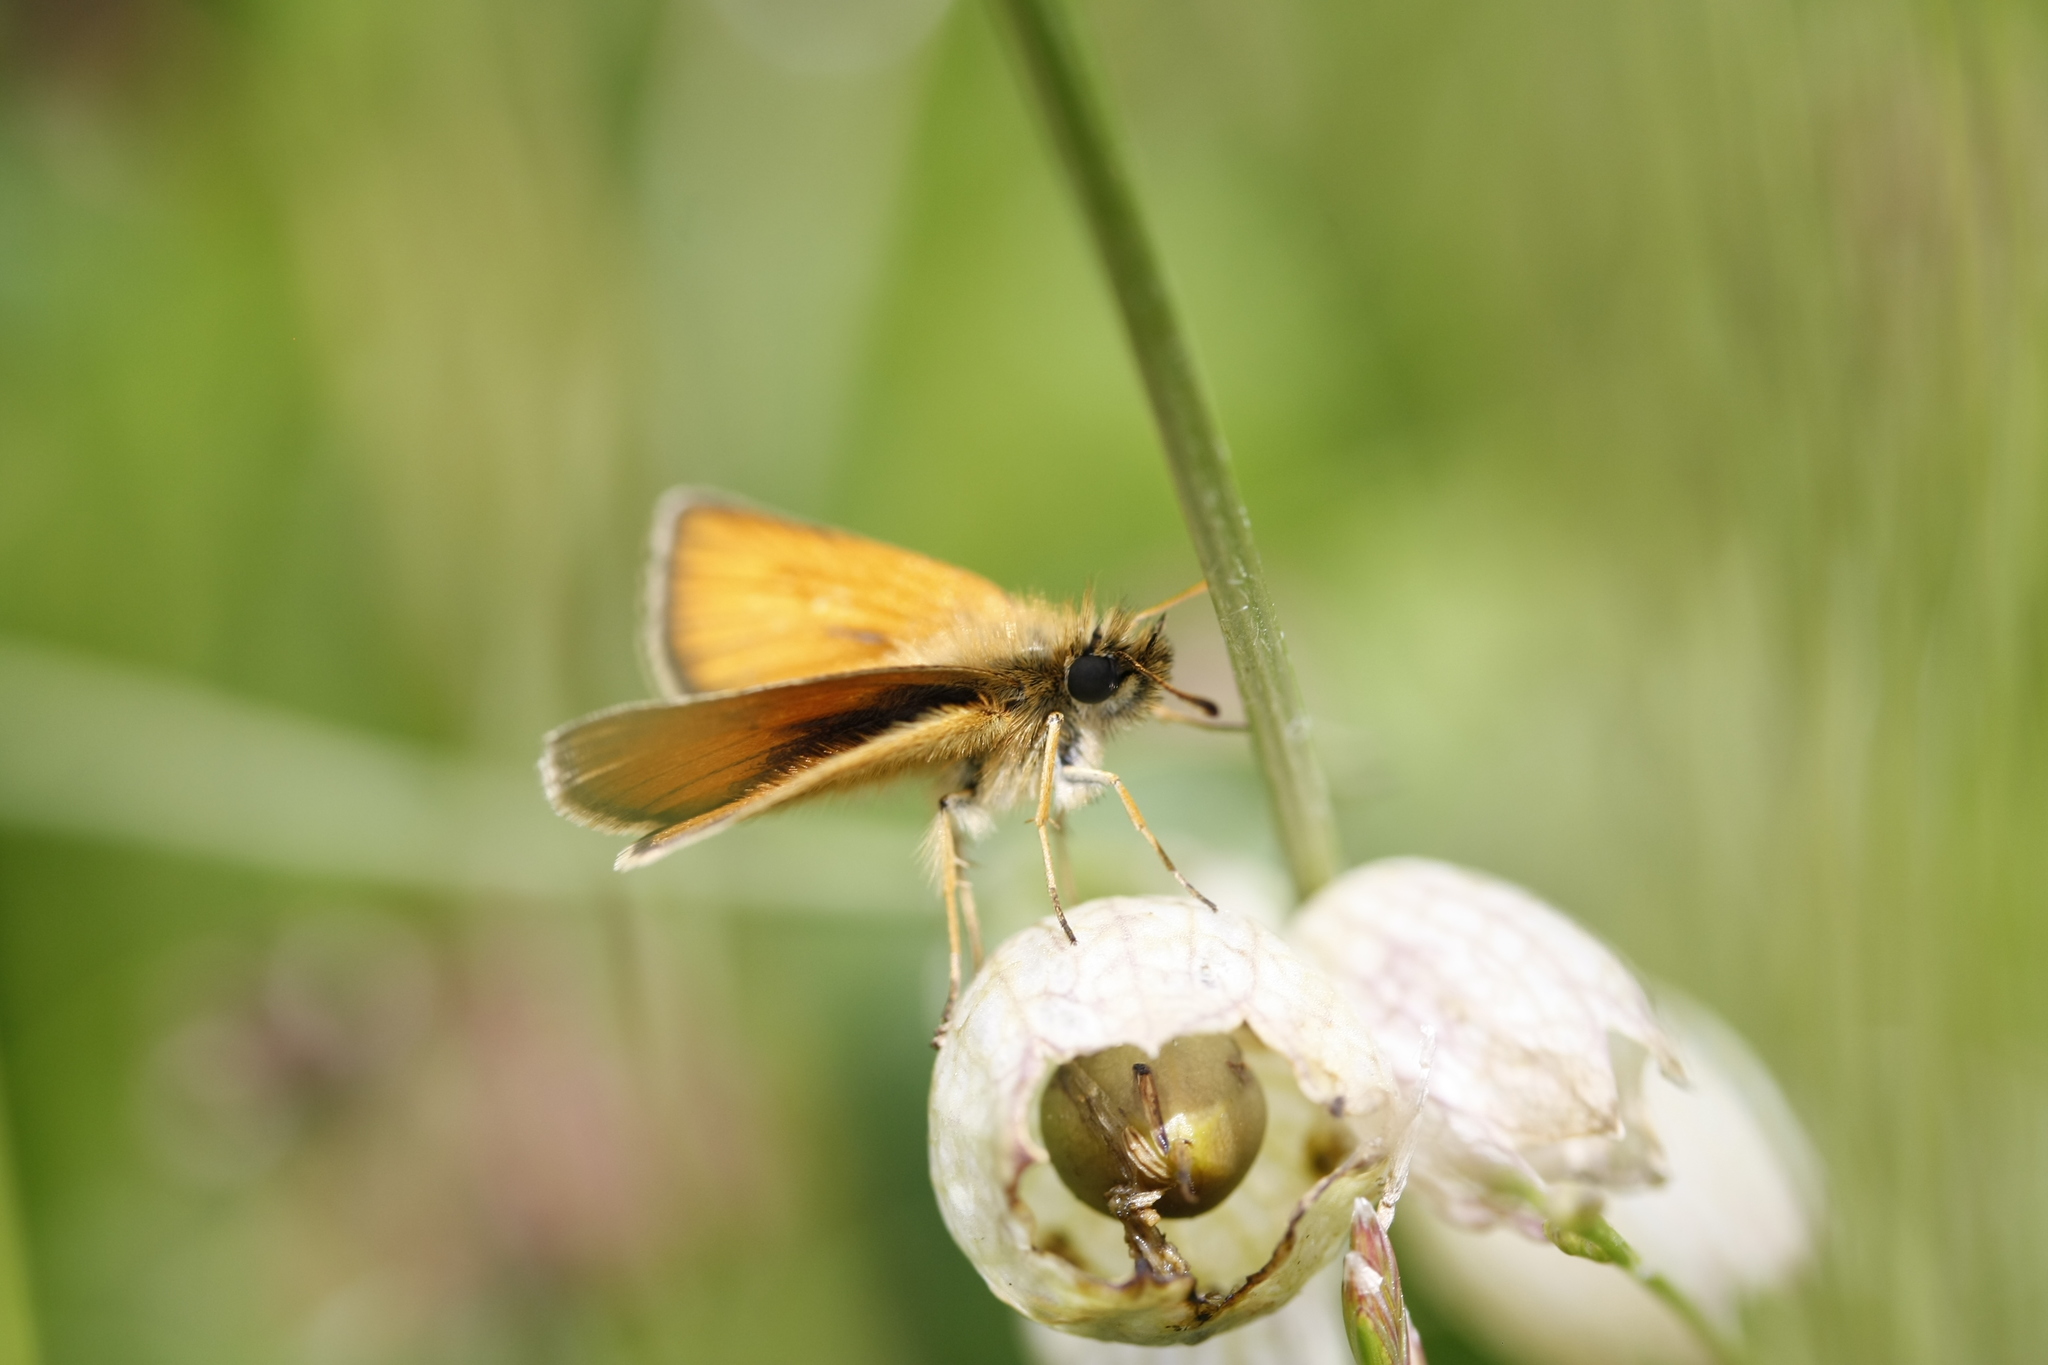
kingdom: Animalia
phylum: Arthropoda
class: Insecta
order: Lepidoptera
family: Hesperiidae
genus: Thymelicus
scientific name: Thymelicus lineola
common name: Essex skipper
